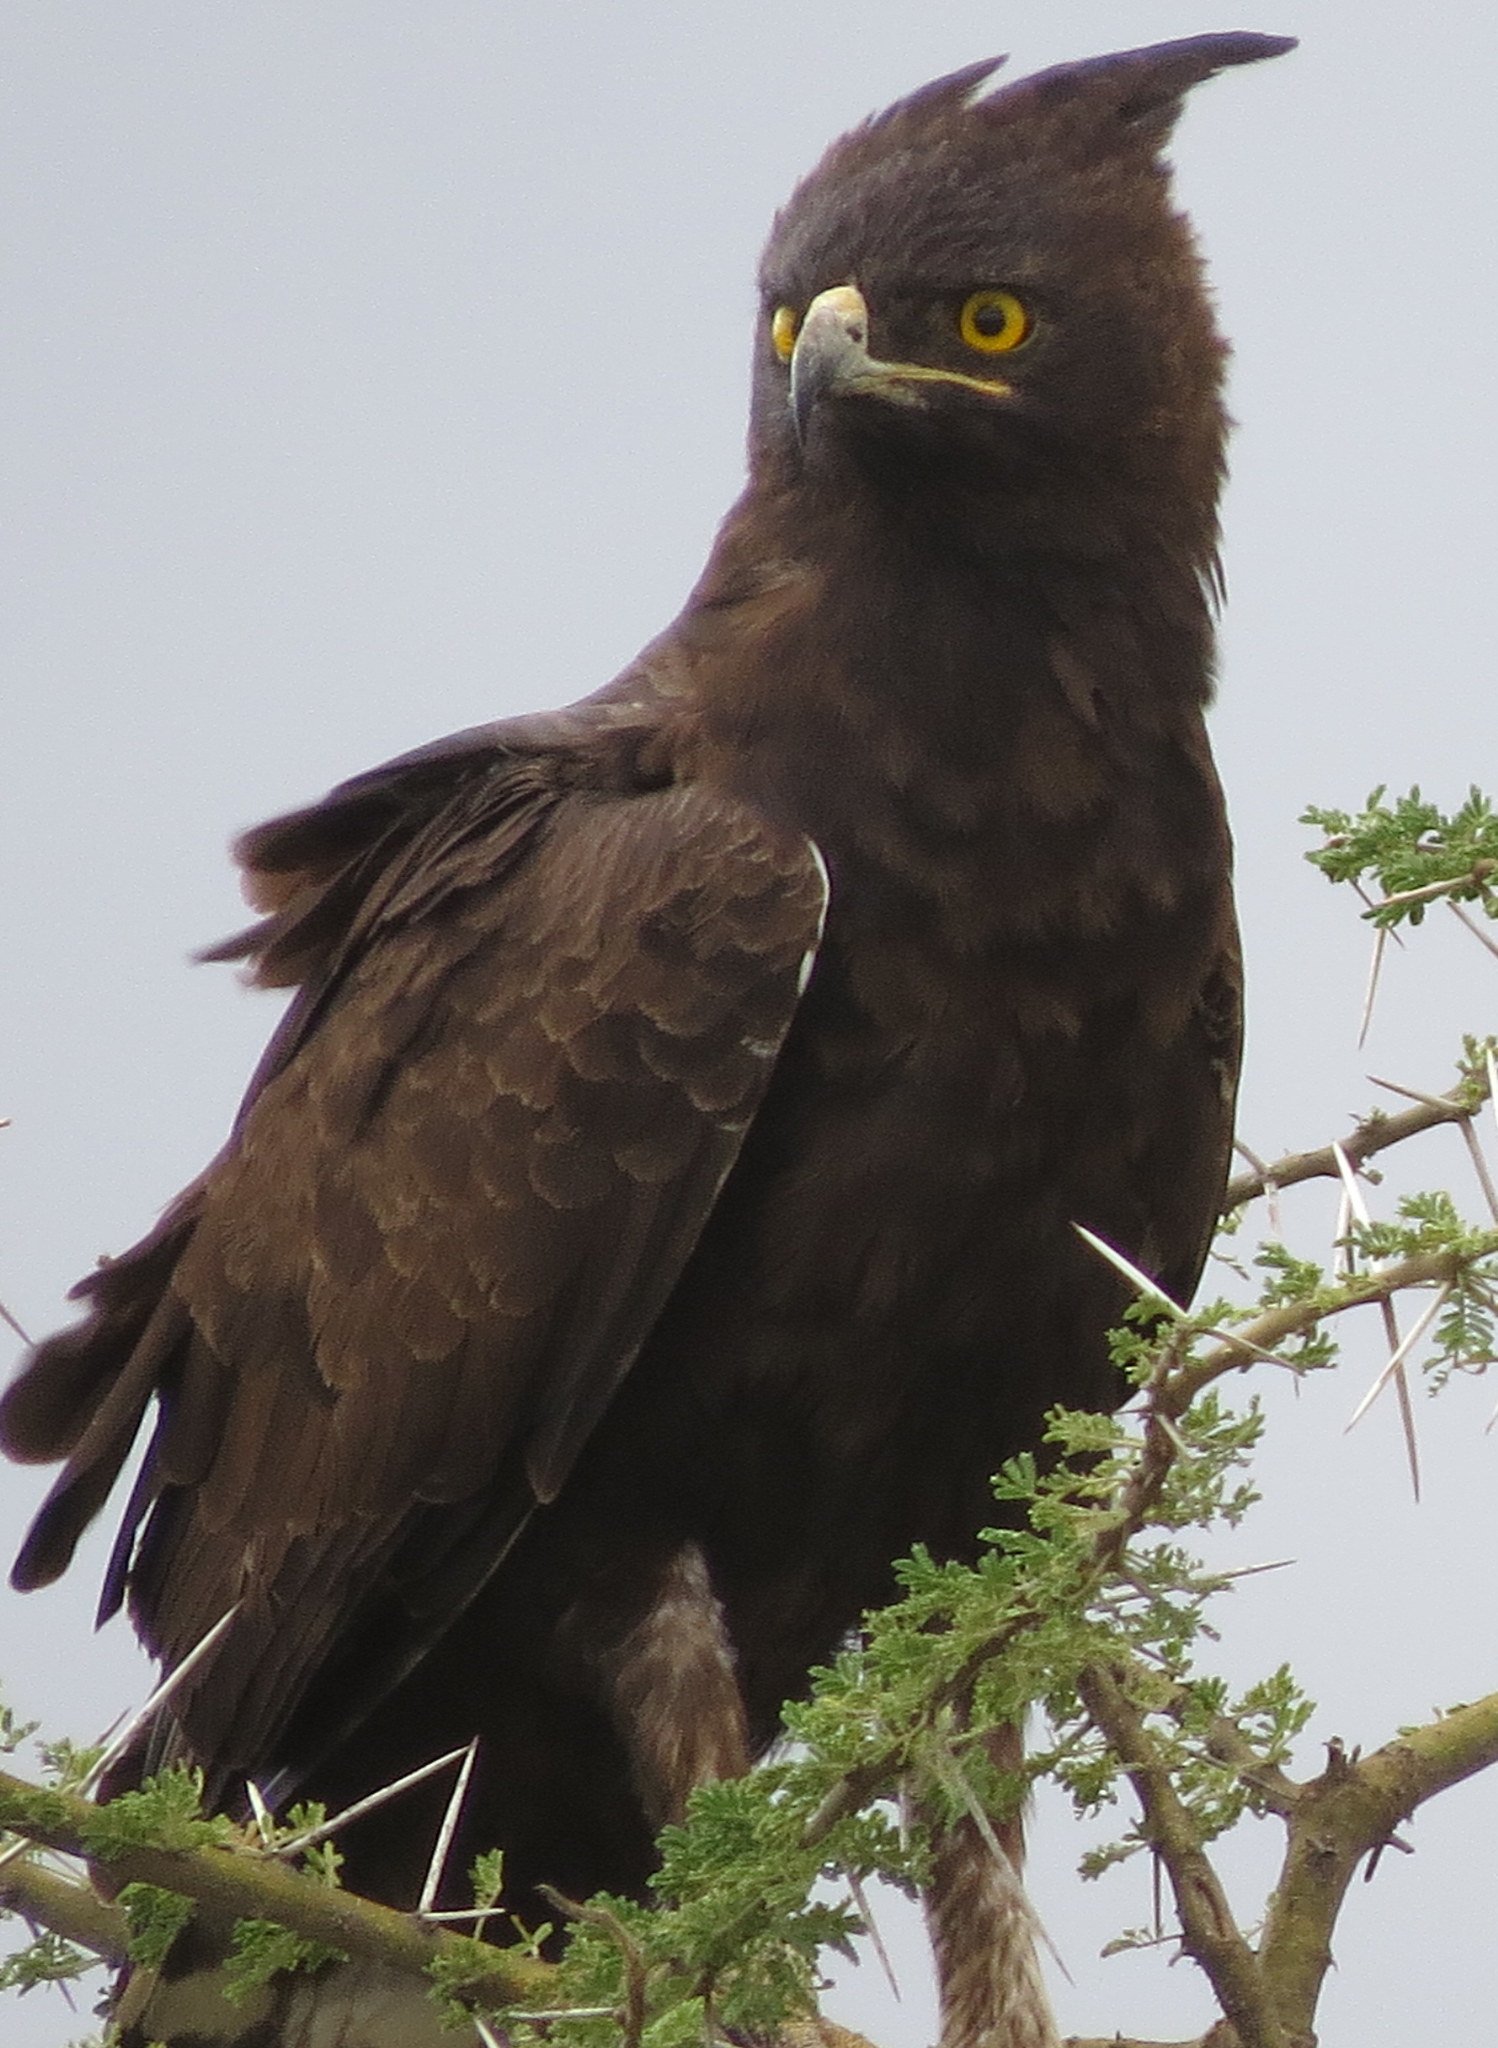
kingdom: Animalia
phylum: Chordata
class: Aves
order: Accipitriformes
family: Accipitridae
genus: Lophaetus
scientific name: Lophaetus occipitalis
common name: Long-crested eagle
